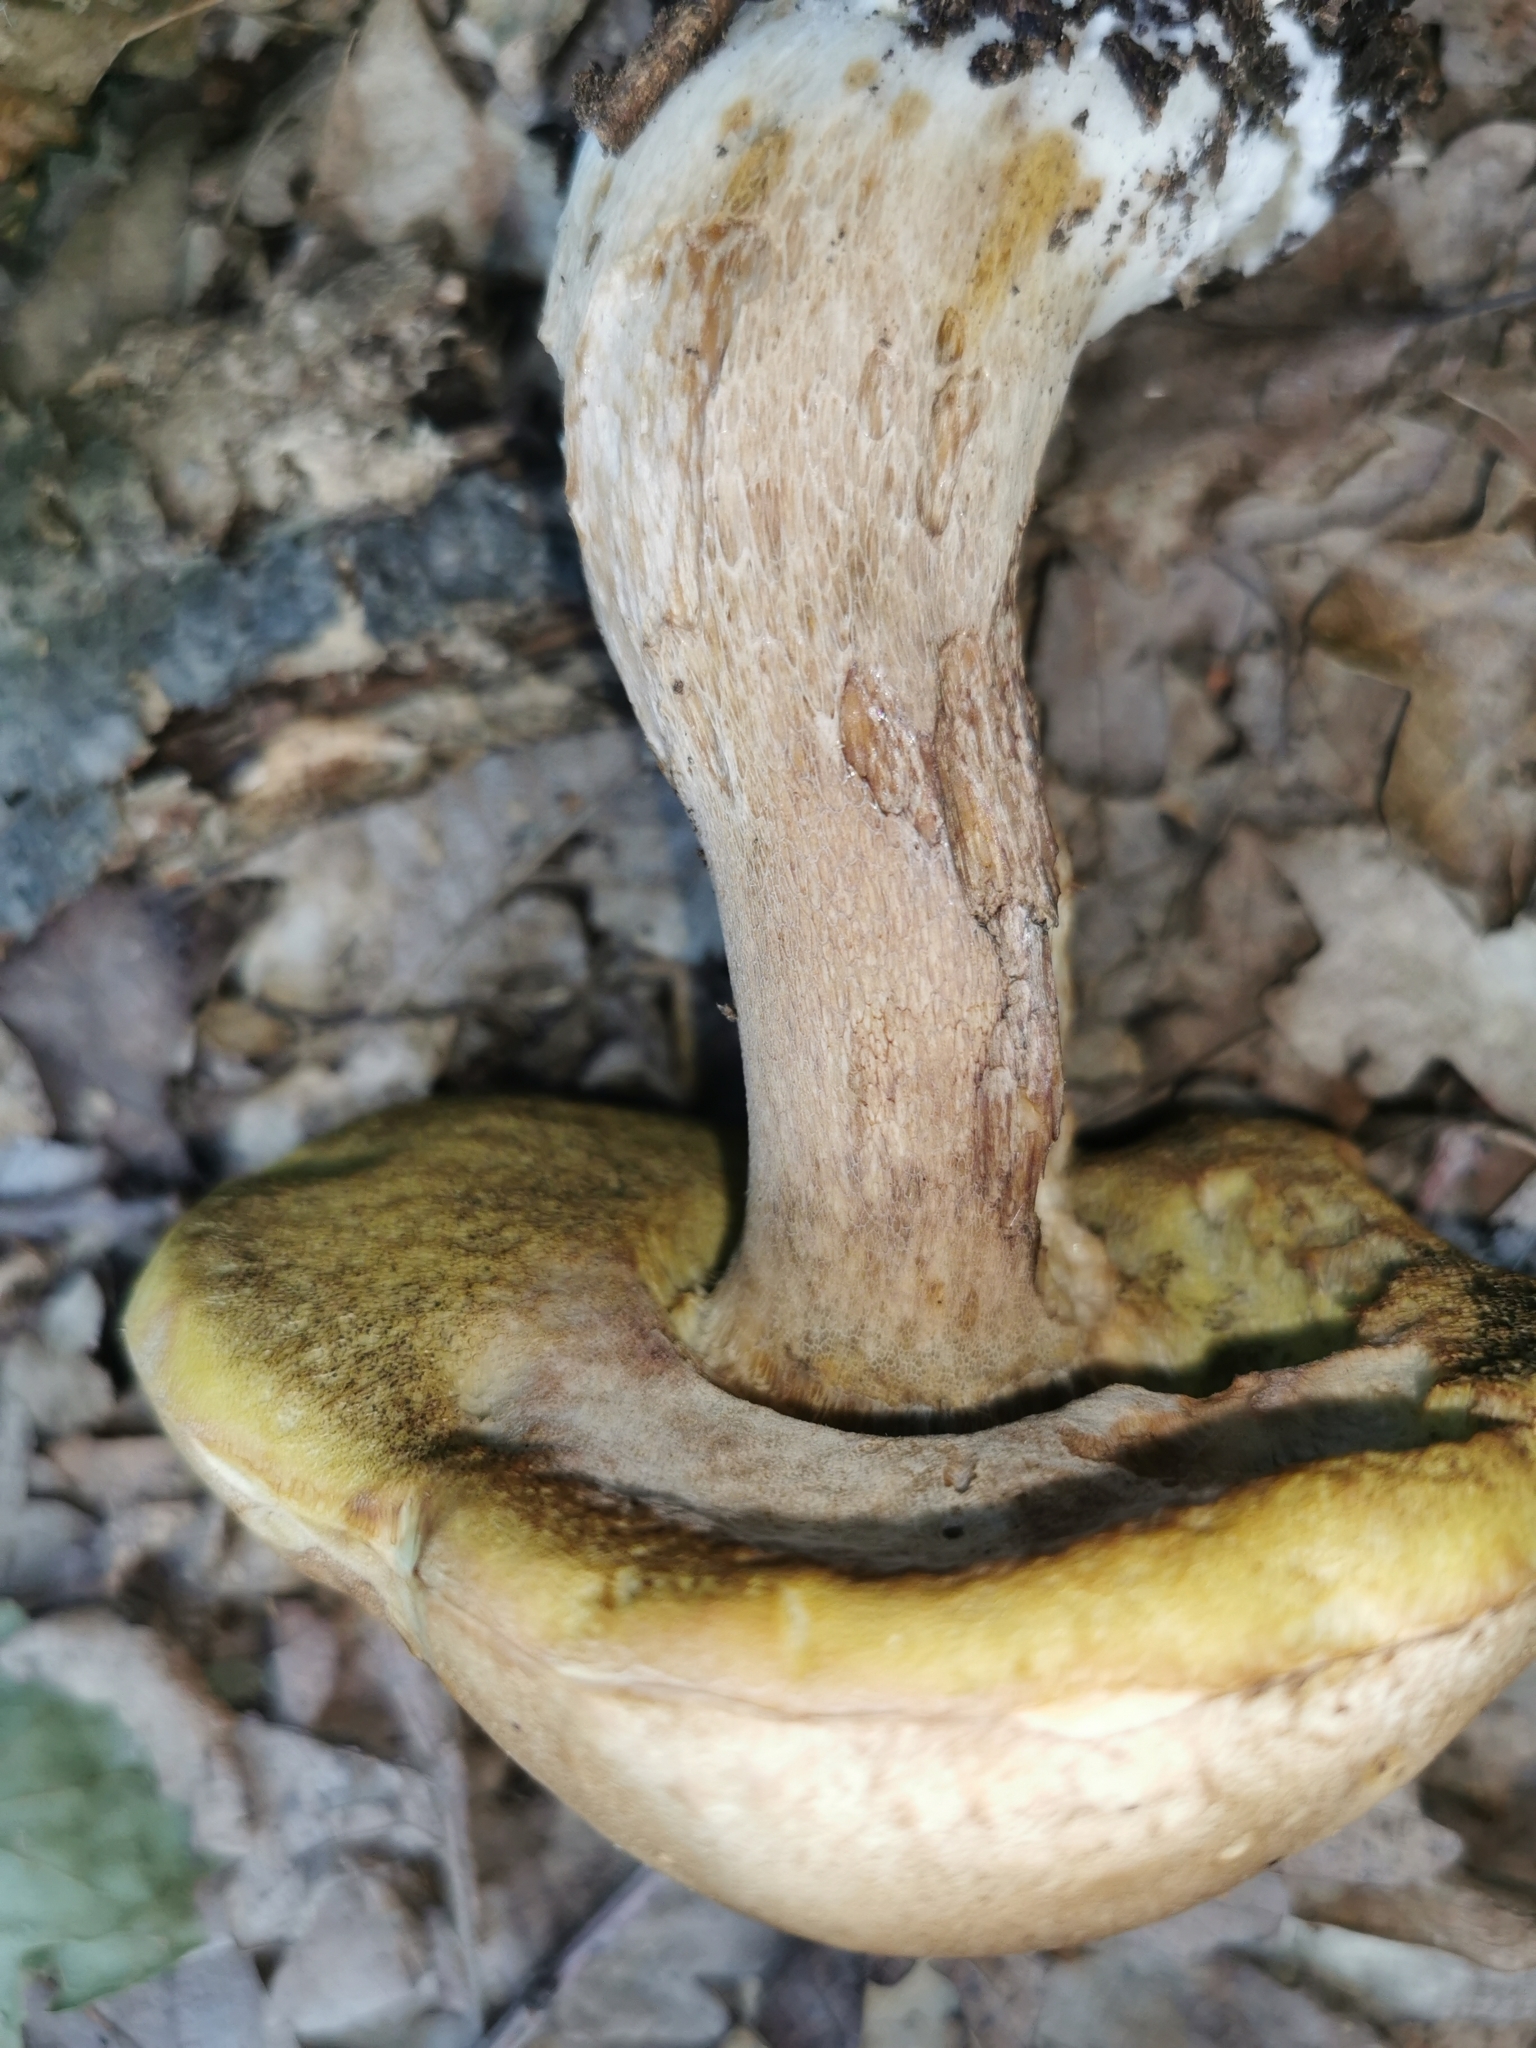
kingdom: Fungi
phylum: Basidiomycota
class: Agaricomycetes
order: Boletales
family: Boletaceae
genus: Boletus
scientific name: Boletus reticulatus
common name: Summer bolete
